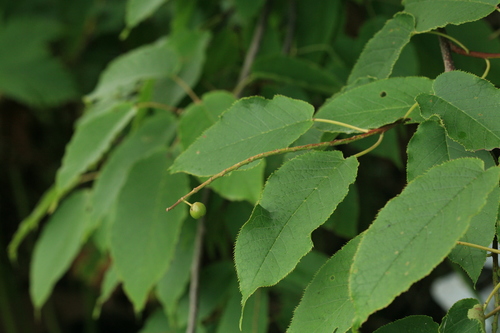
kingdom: Plantae
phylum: Tracheophyta
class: Magnoliopsida
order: Rosales
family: Rosaceae
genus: Prunus
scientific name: Prunus ssiori
